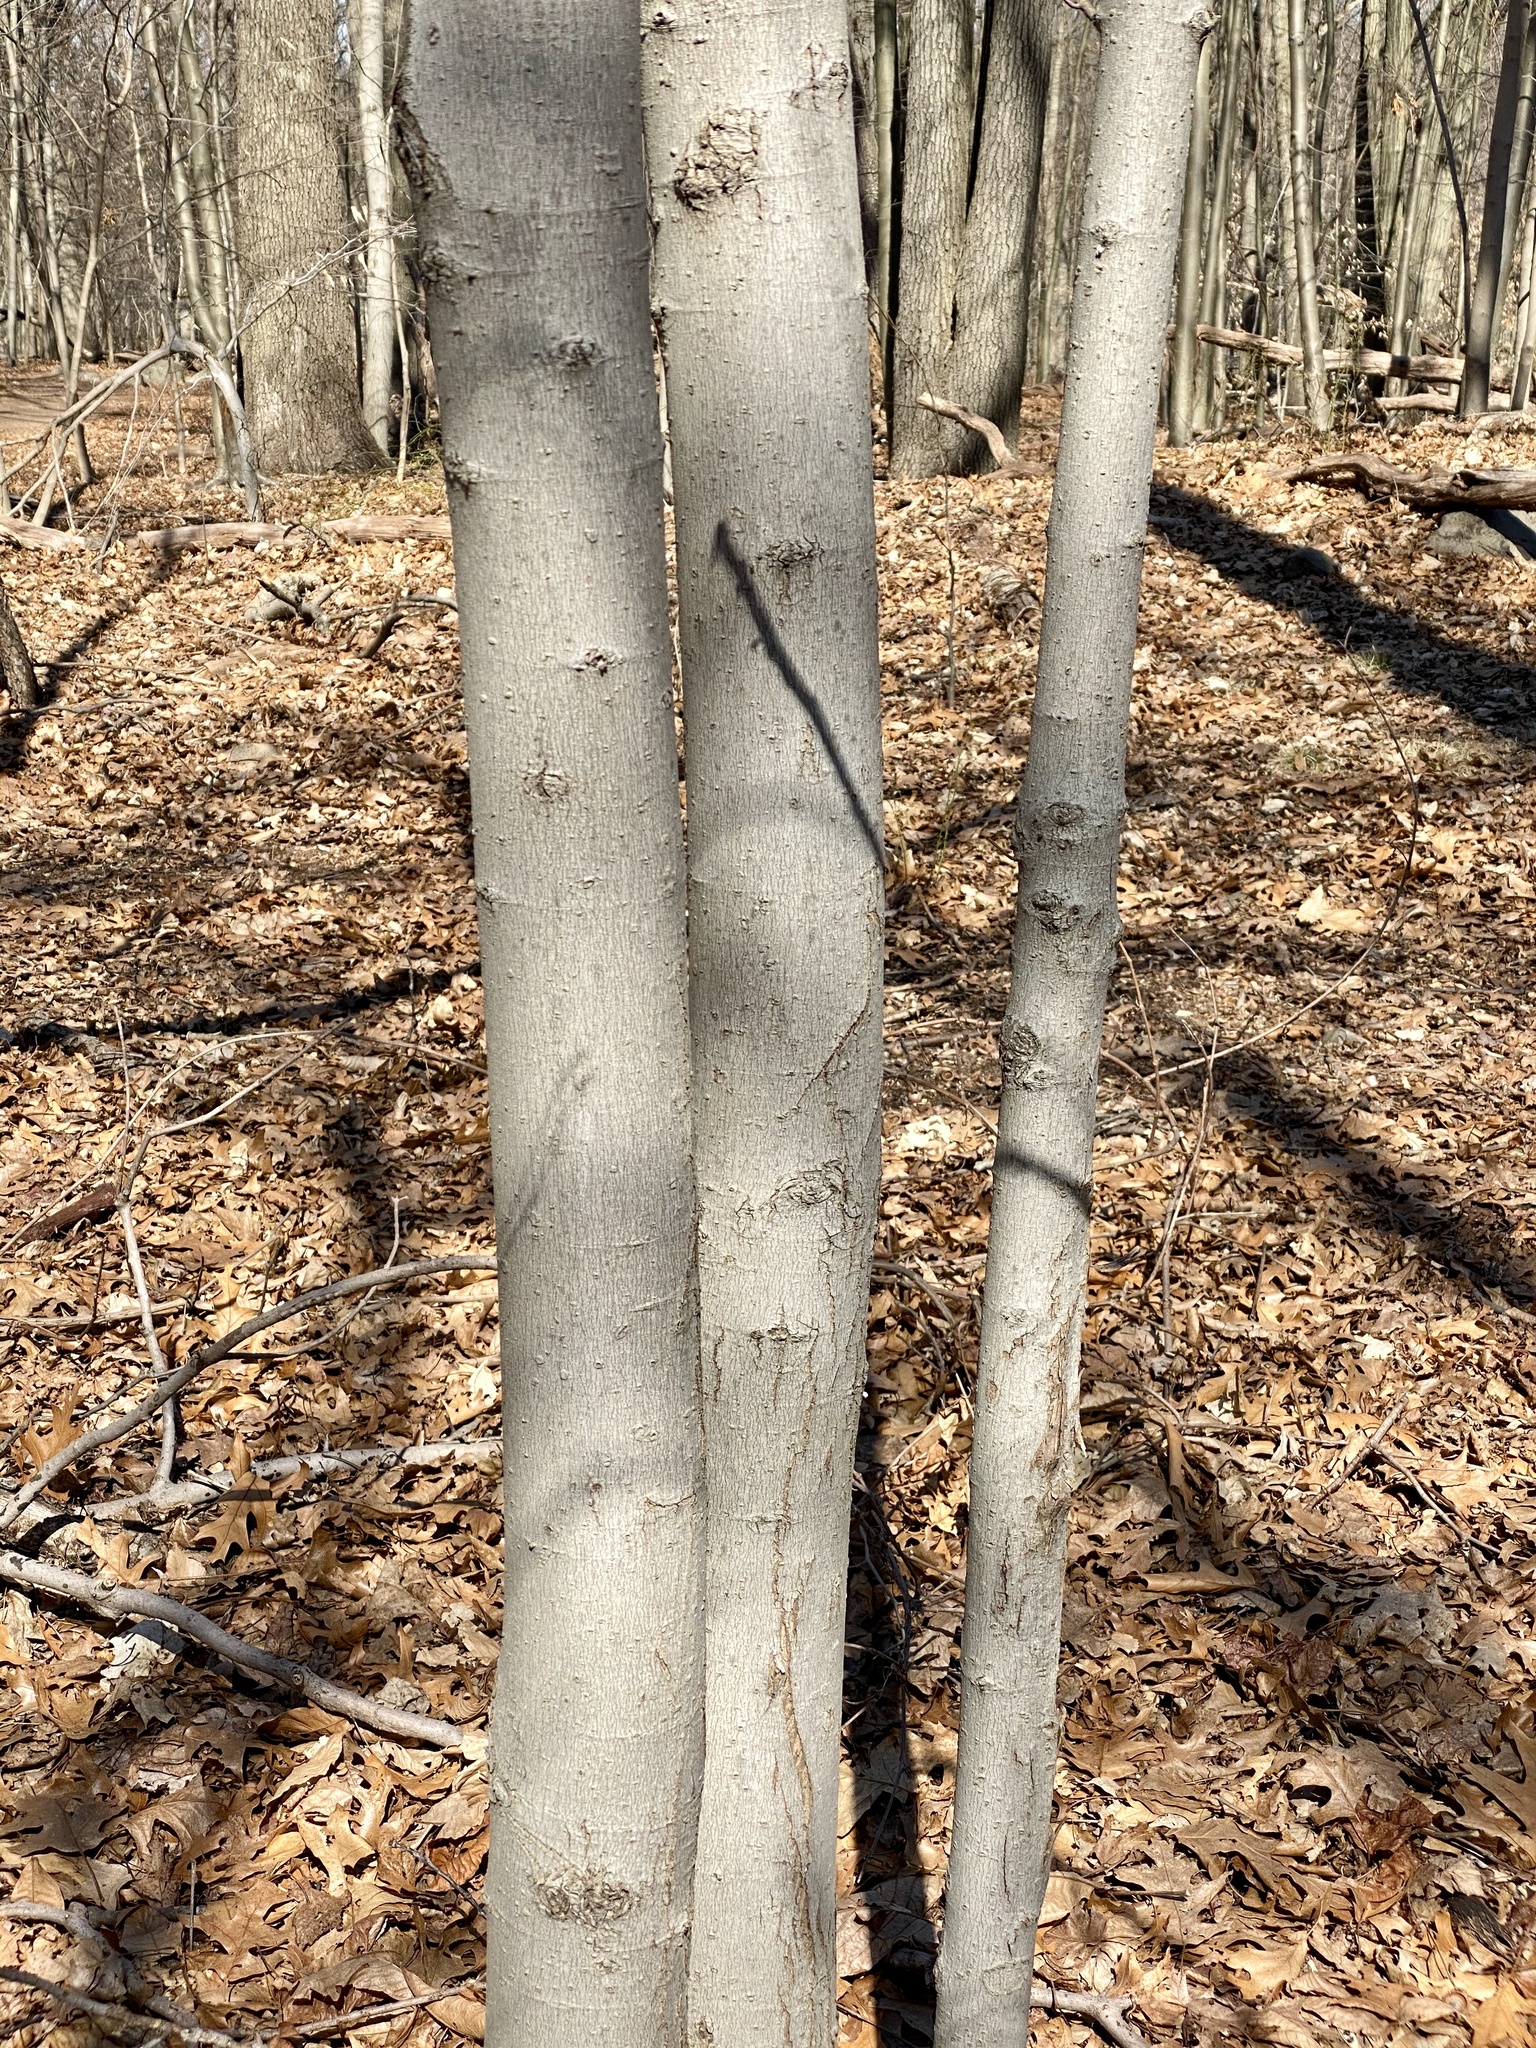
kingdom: Plantae
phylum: Tracheophyta
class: Magnoliopsida
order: Fagales
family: Fagaceae
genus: Fagus
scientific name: Fagus grandifolia
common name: American beech
